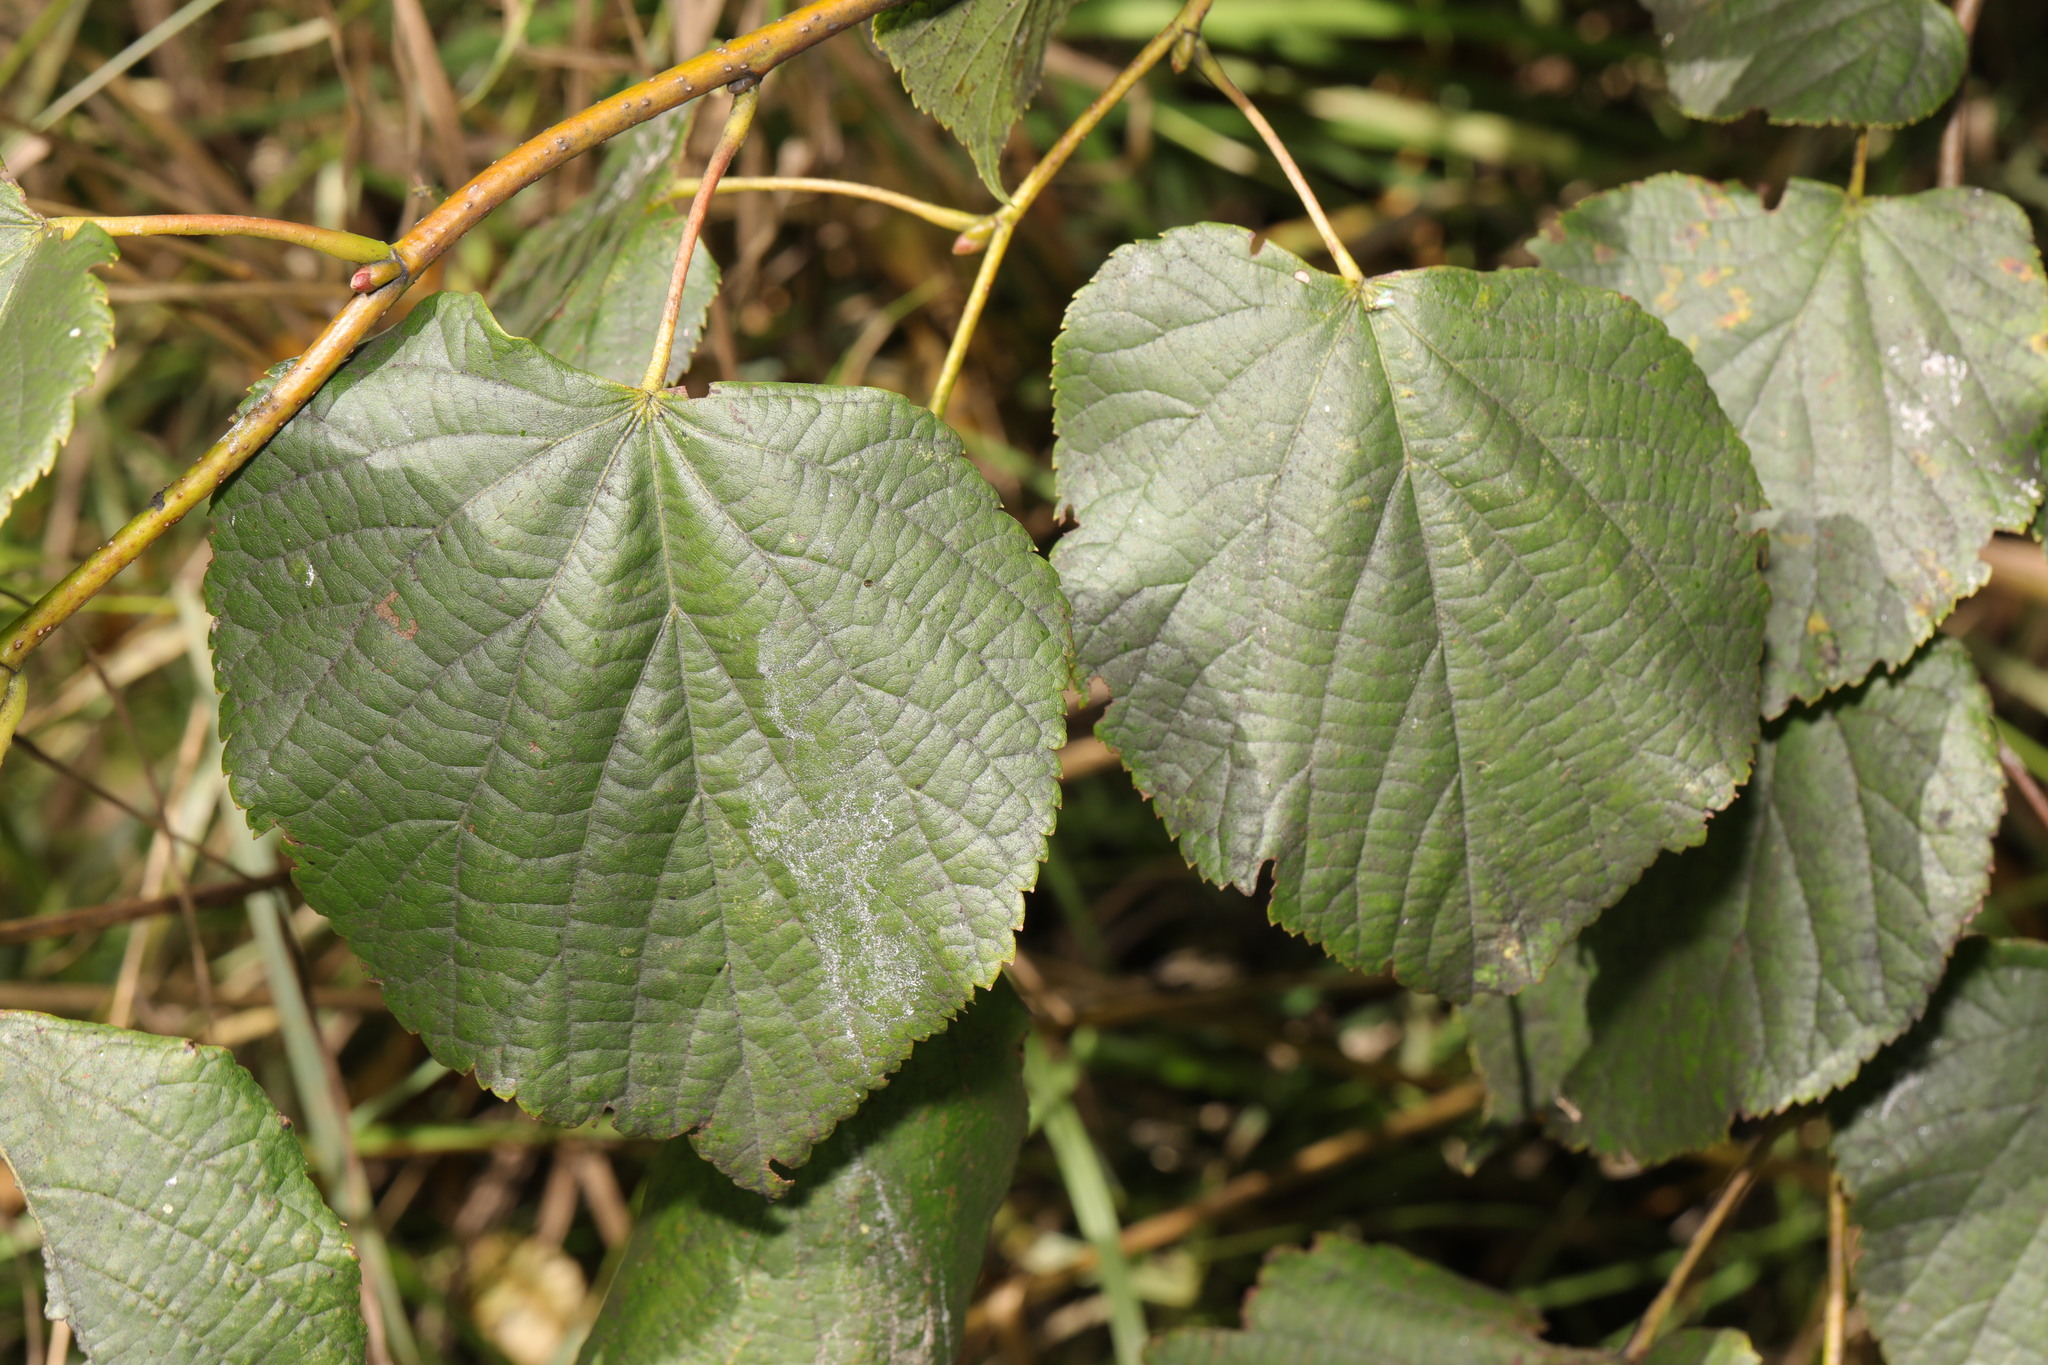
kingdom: Plantae
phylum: Tracheophyta
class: Magnoliopsida
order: Malvales
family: Malvaceae
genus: Tilia
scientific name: Tilia europaea
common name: European linden
